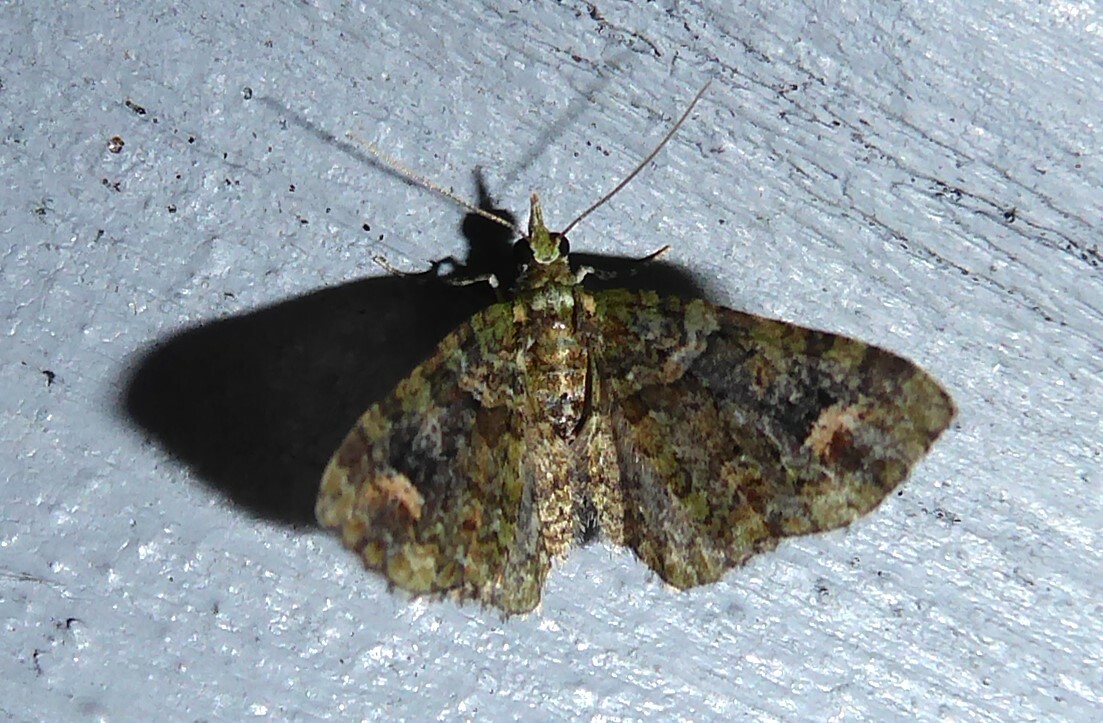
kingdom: Animalia
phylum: Arthropoda
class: Insecta
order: Lepidoptera
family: Geometridae
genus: Idaea
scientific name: Idaea mutanda
